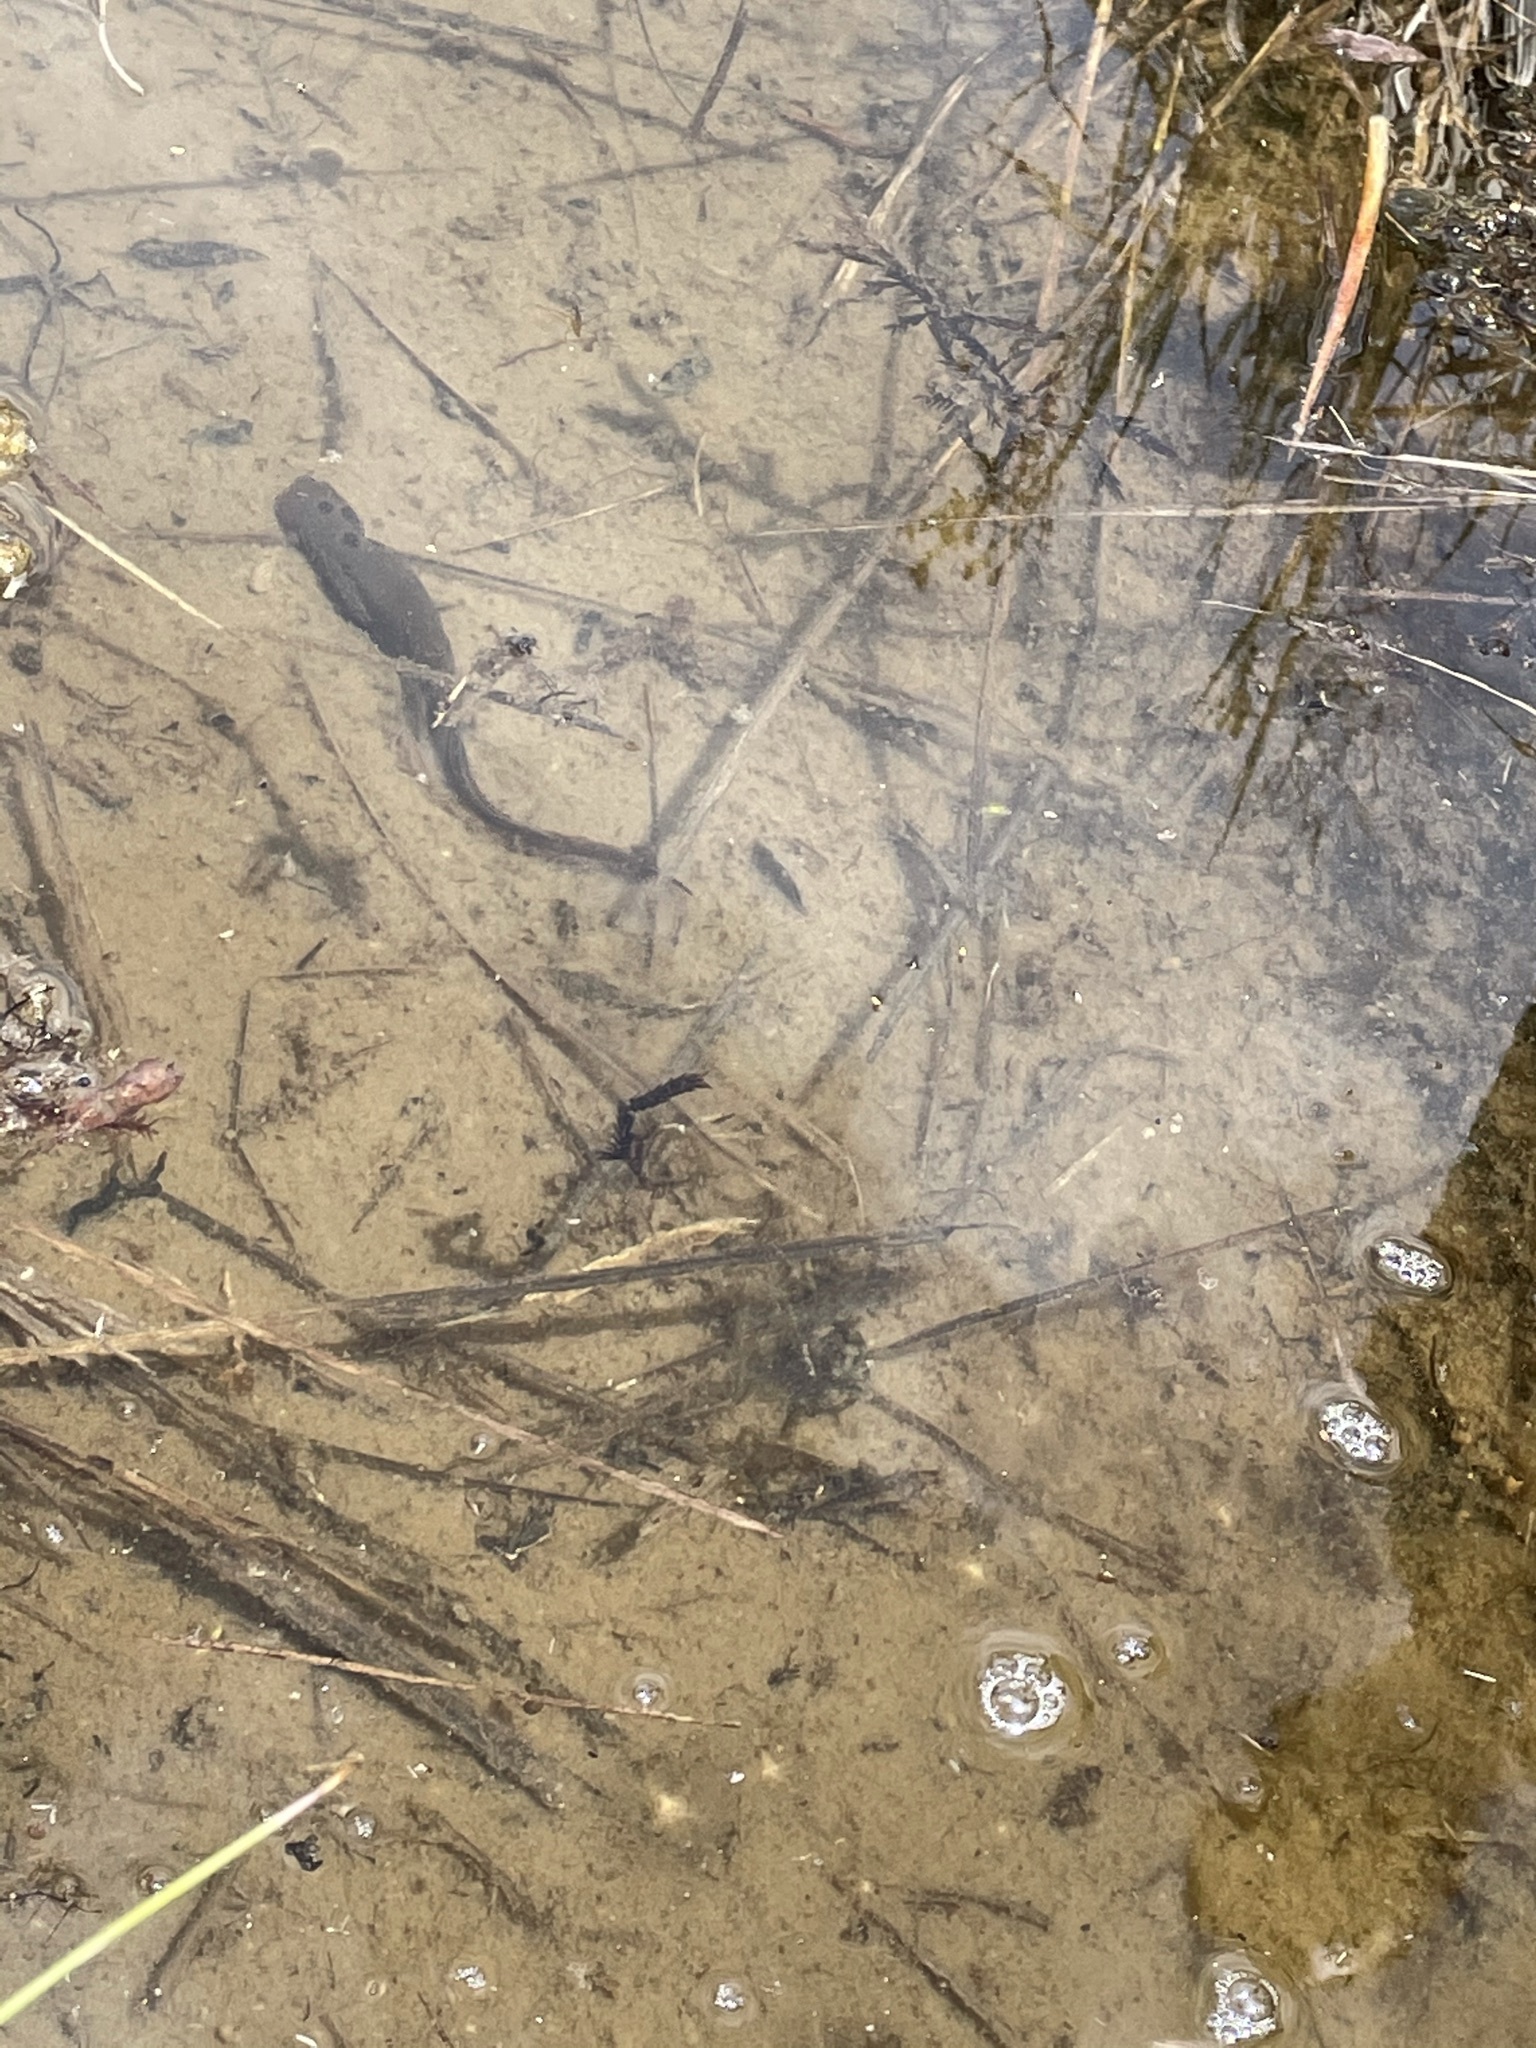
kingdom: Animalia
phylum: Chordata
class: Amphibia
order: Caudata
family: Salamandridae
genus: Taricha
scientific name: Taricha granulosa
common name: Roughskin newt
